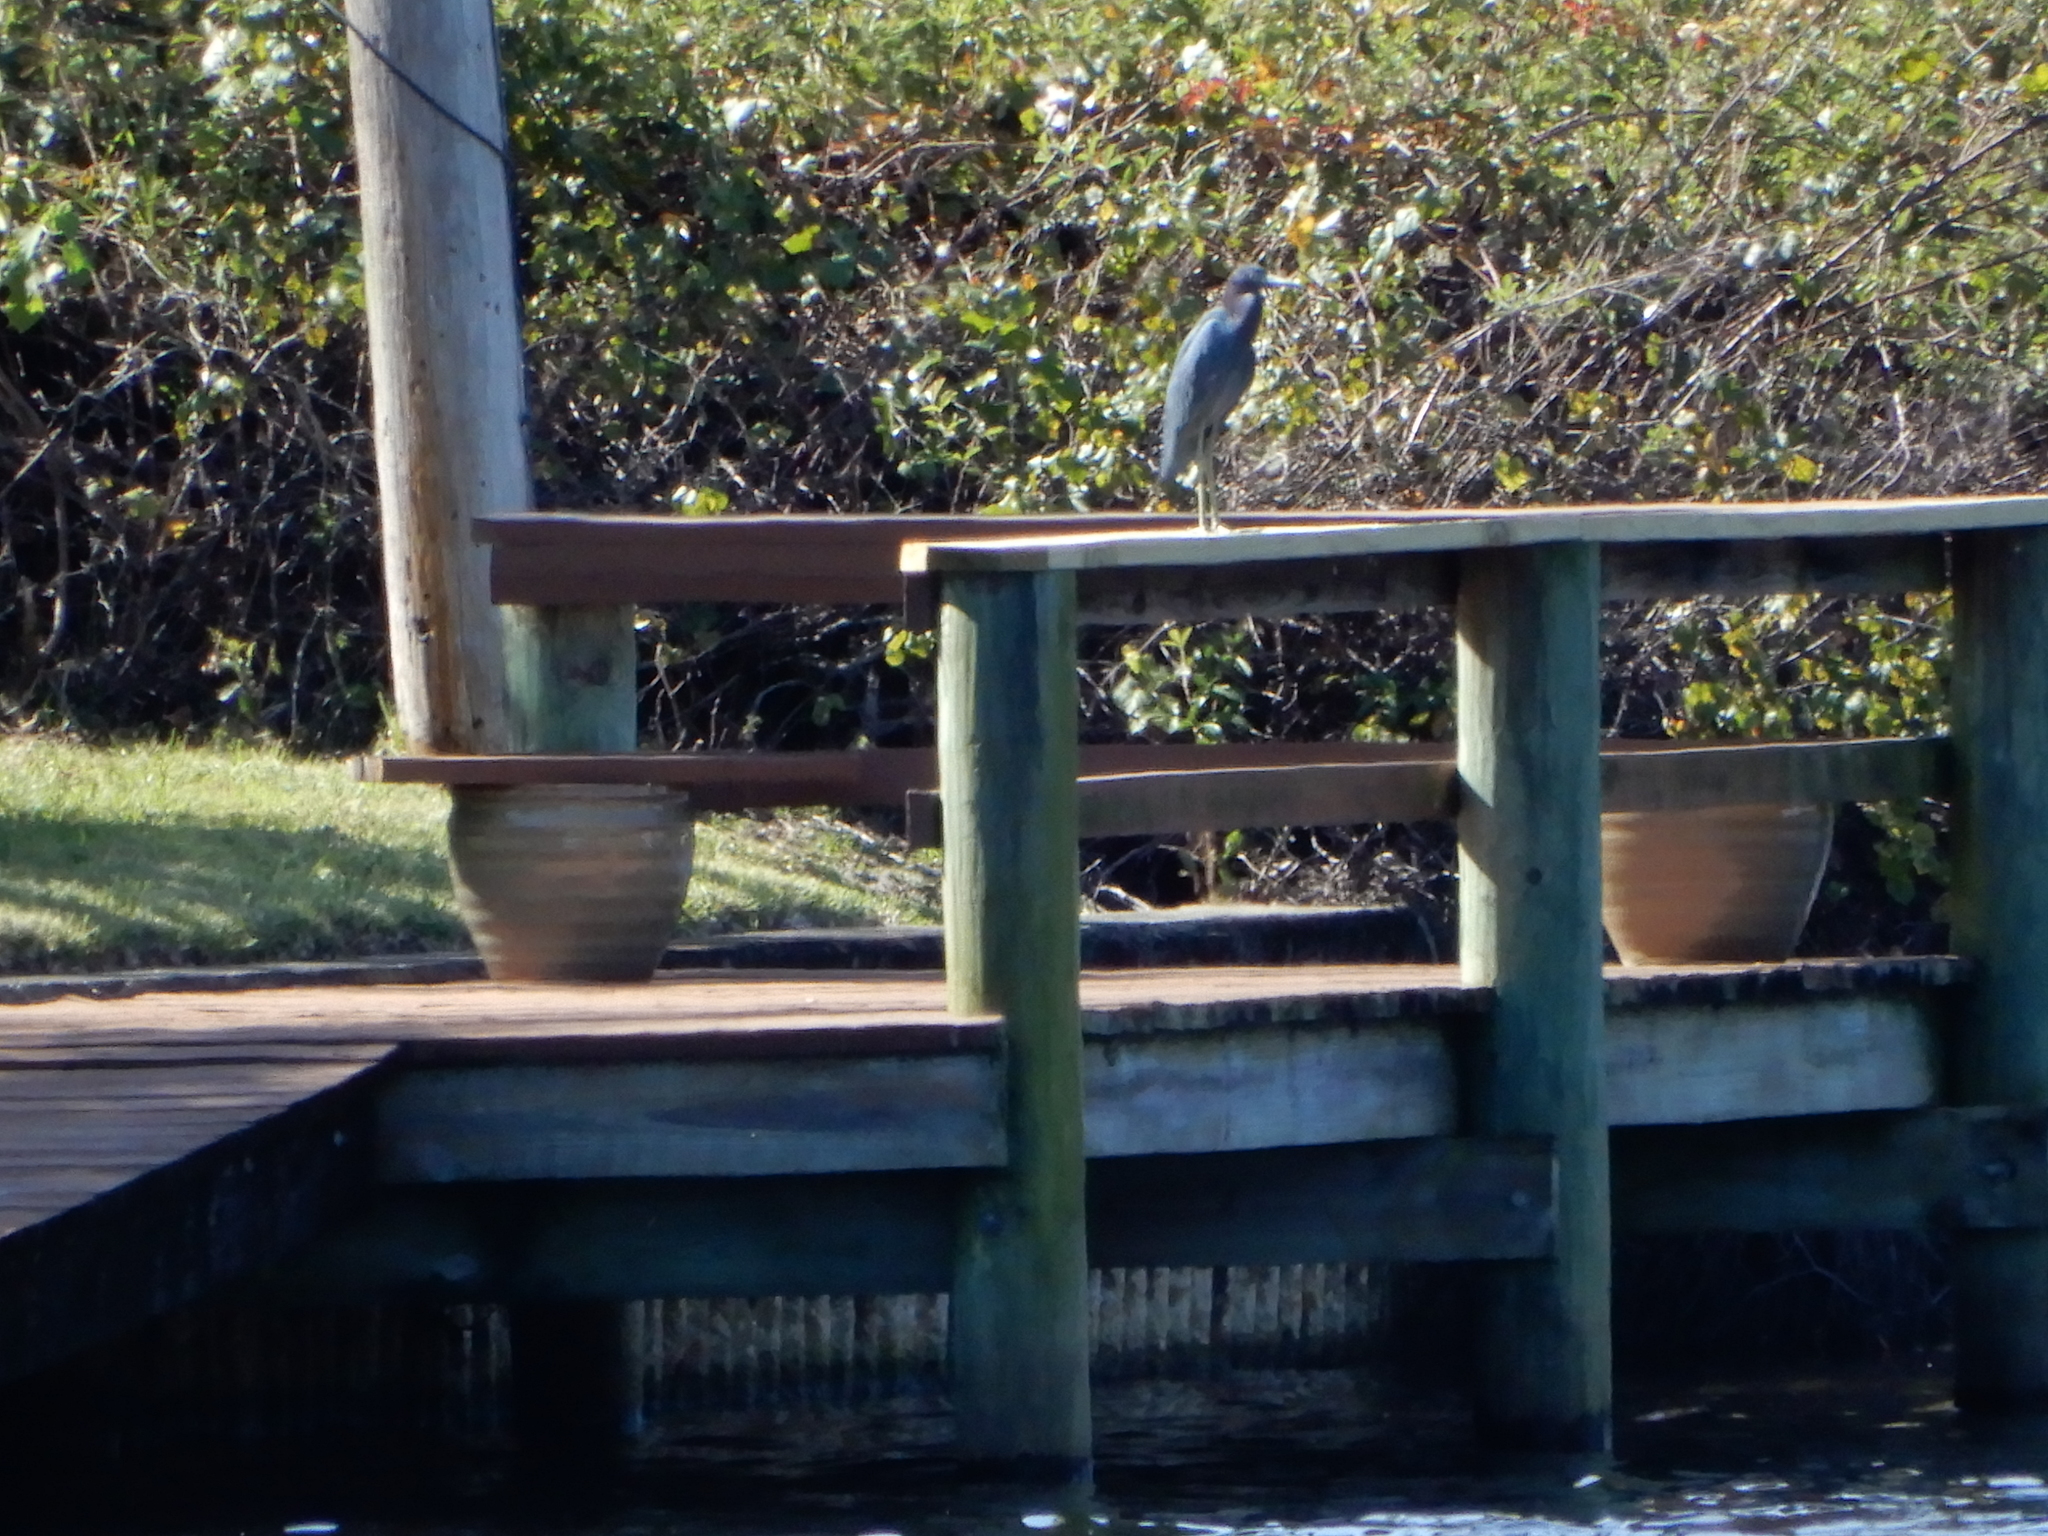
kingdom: Animalia
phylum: Chordata
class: Aves
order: Pelecaniformes
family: Ardeidae
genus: Egretta
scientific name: Egretta caerulea
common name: Little blue heron
